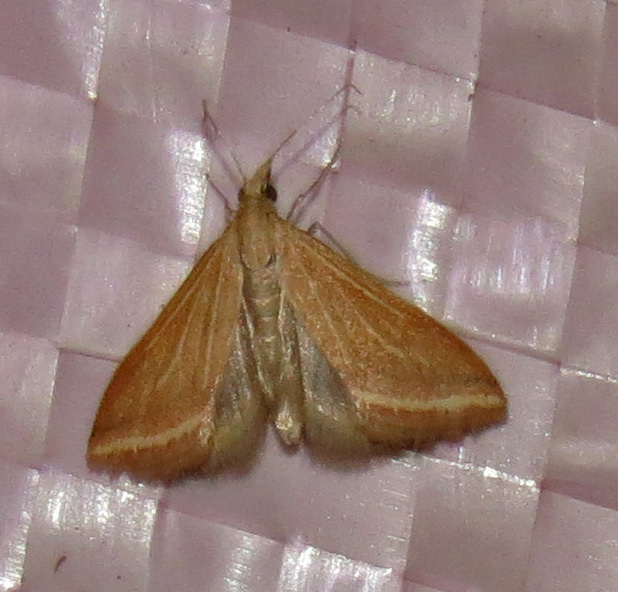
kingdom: Animalia
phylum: Arthropoda
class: Insecta
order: Lepidoptera
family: Crambidae
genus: Microtheoris
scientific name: Microtheoris ophionalis
